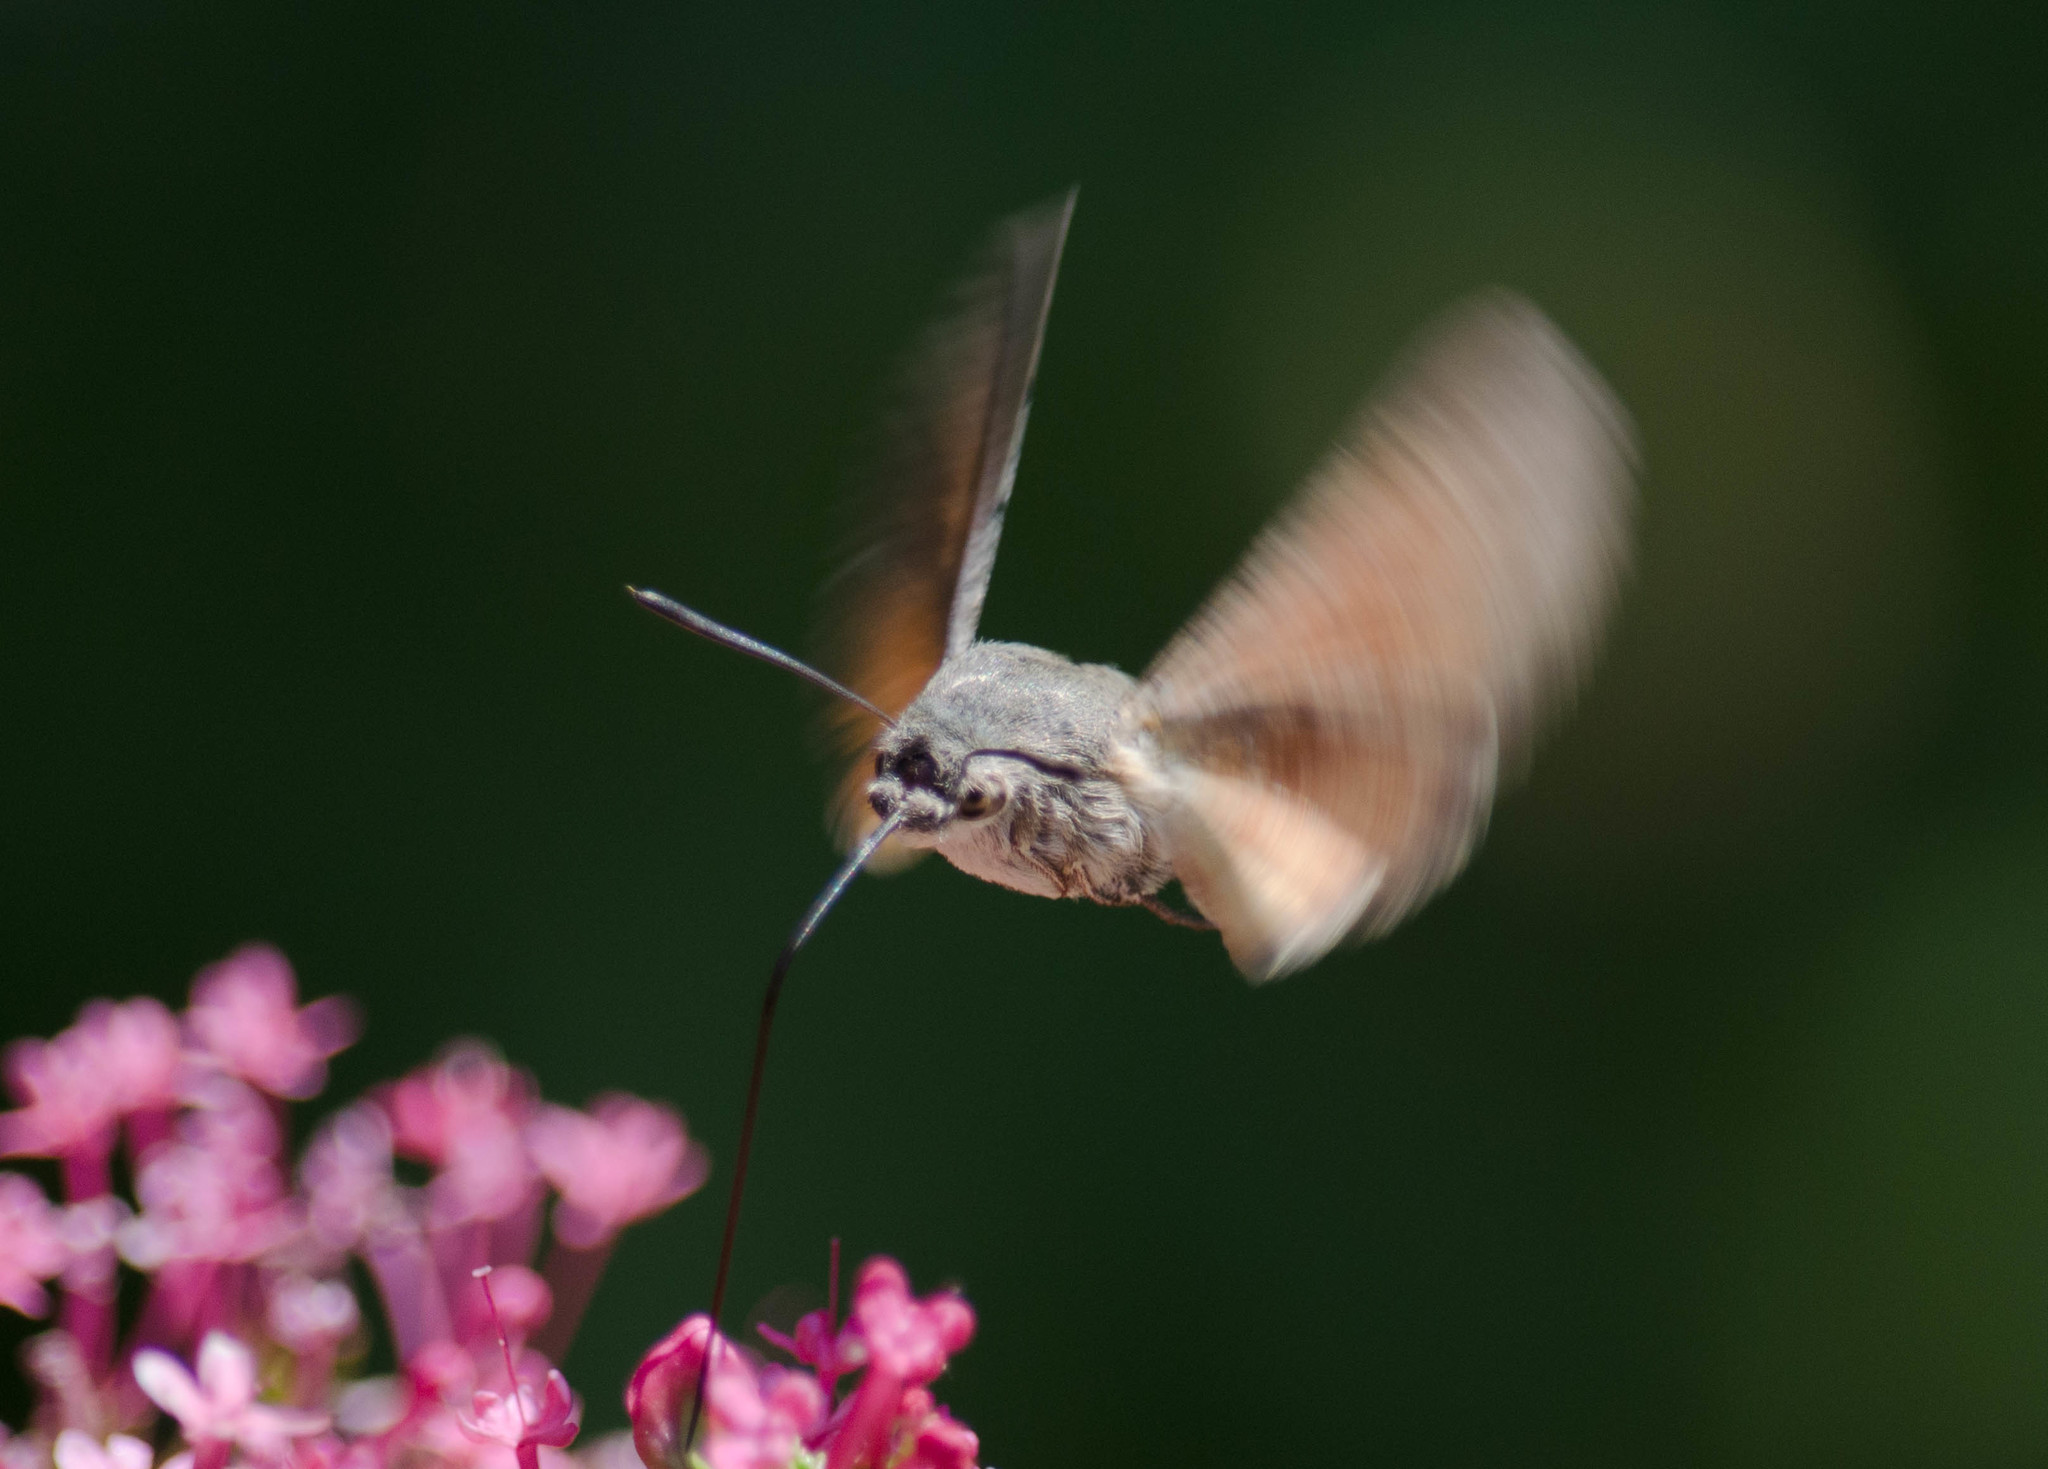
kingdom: Animalia
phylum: Arthropoda
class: Insecta
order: Lepidoptera
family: Sphingidae
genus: Macroglossum
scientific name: Macroglossum stellatarum
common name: Humming-bird hawk-moth
